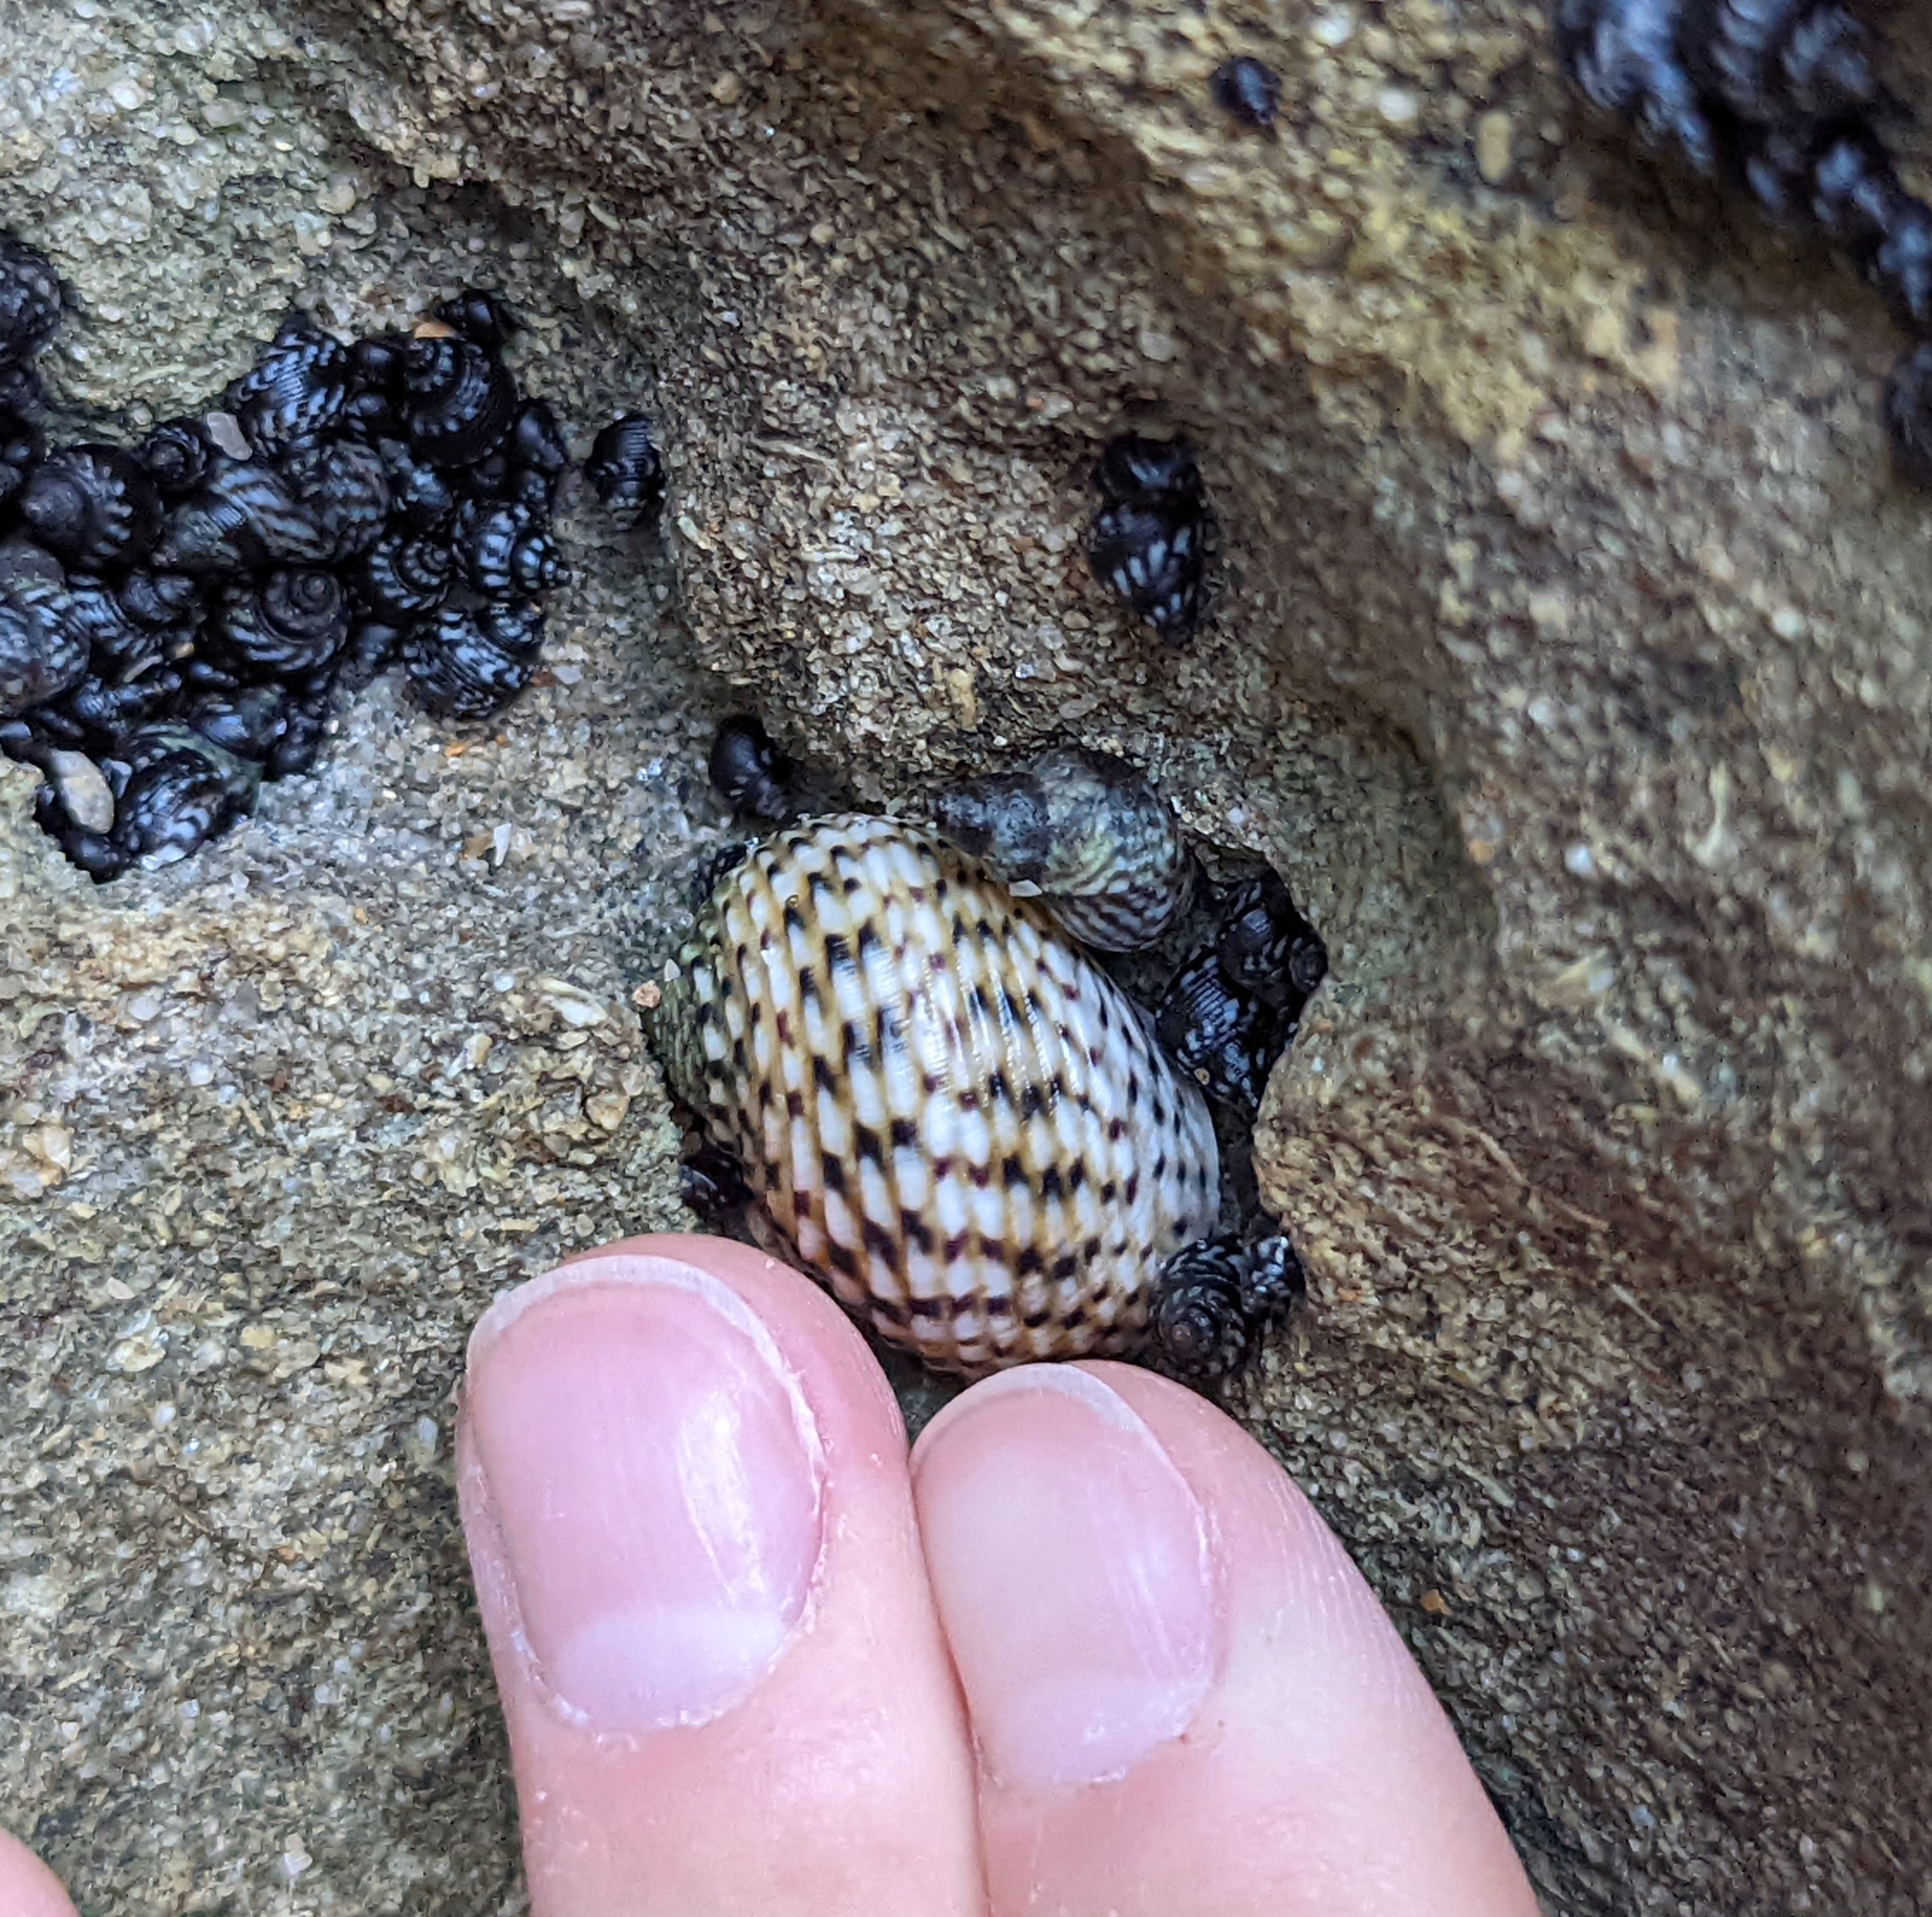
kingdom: Animalia
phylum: Mollusca
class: Gastropoda
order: Cycloneritida
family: Neritidae
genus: Nerita
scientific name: Nerita versicolor
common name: Four-tooth nerite
